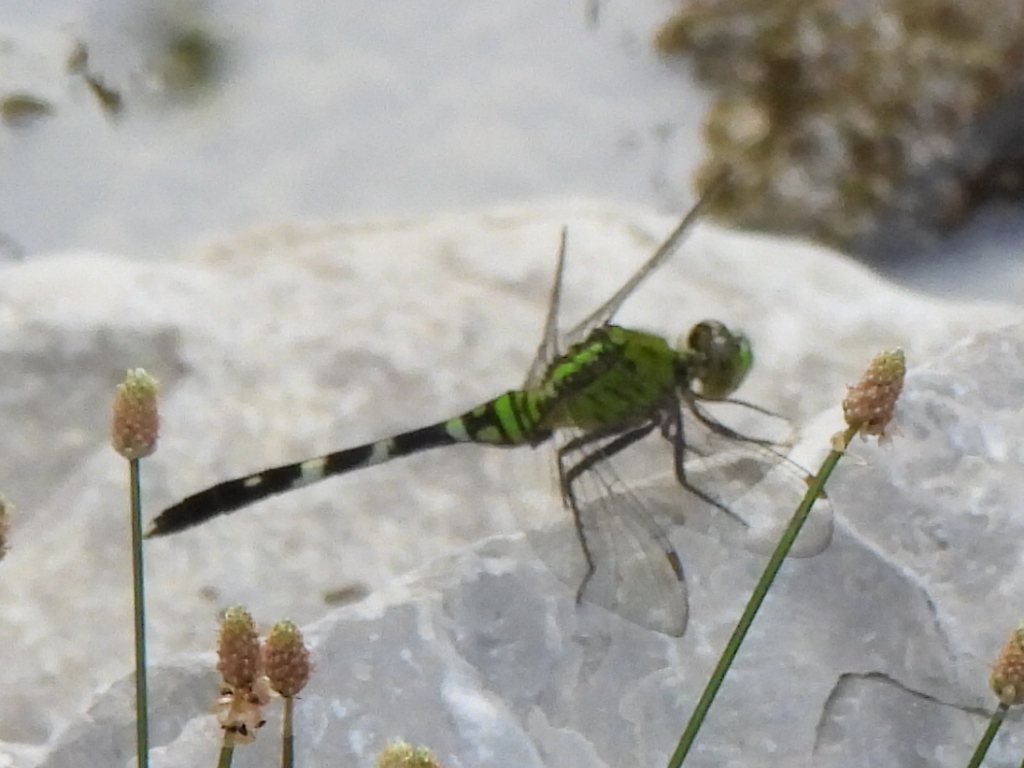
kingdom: Animalia
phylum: Arthropoda
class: Insecta
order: Odonata
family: Libellulidae
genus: Erythemis
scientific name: Erythemis simplicicollis
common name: Eastern pondhawk
